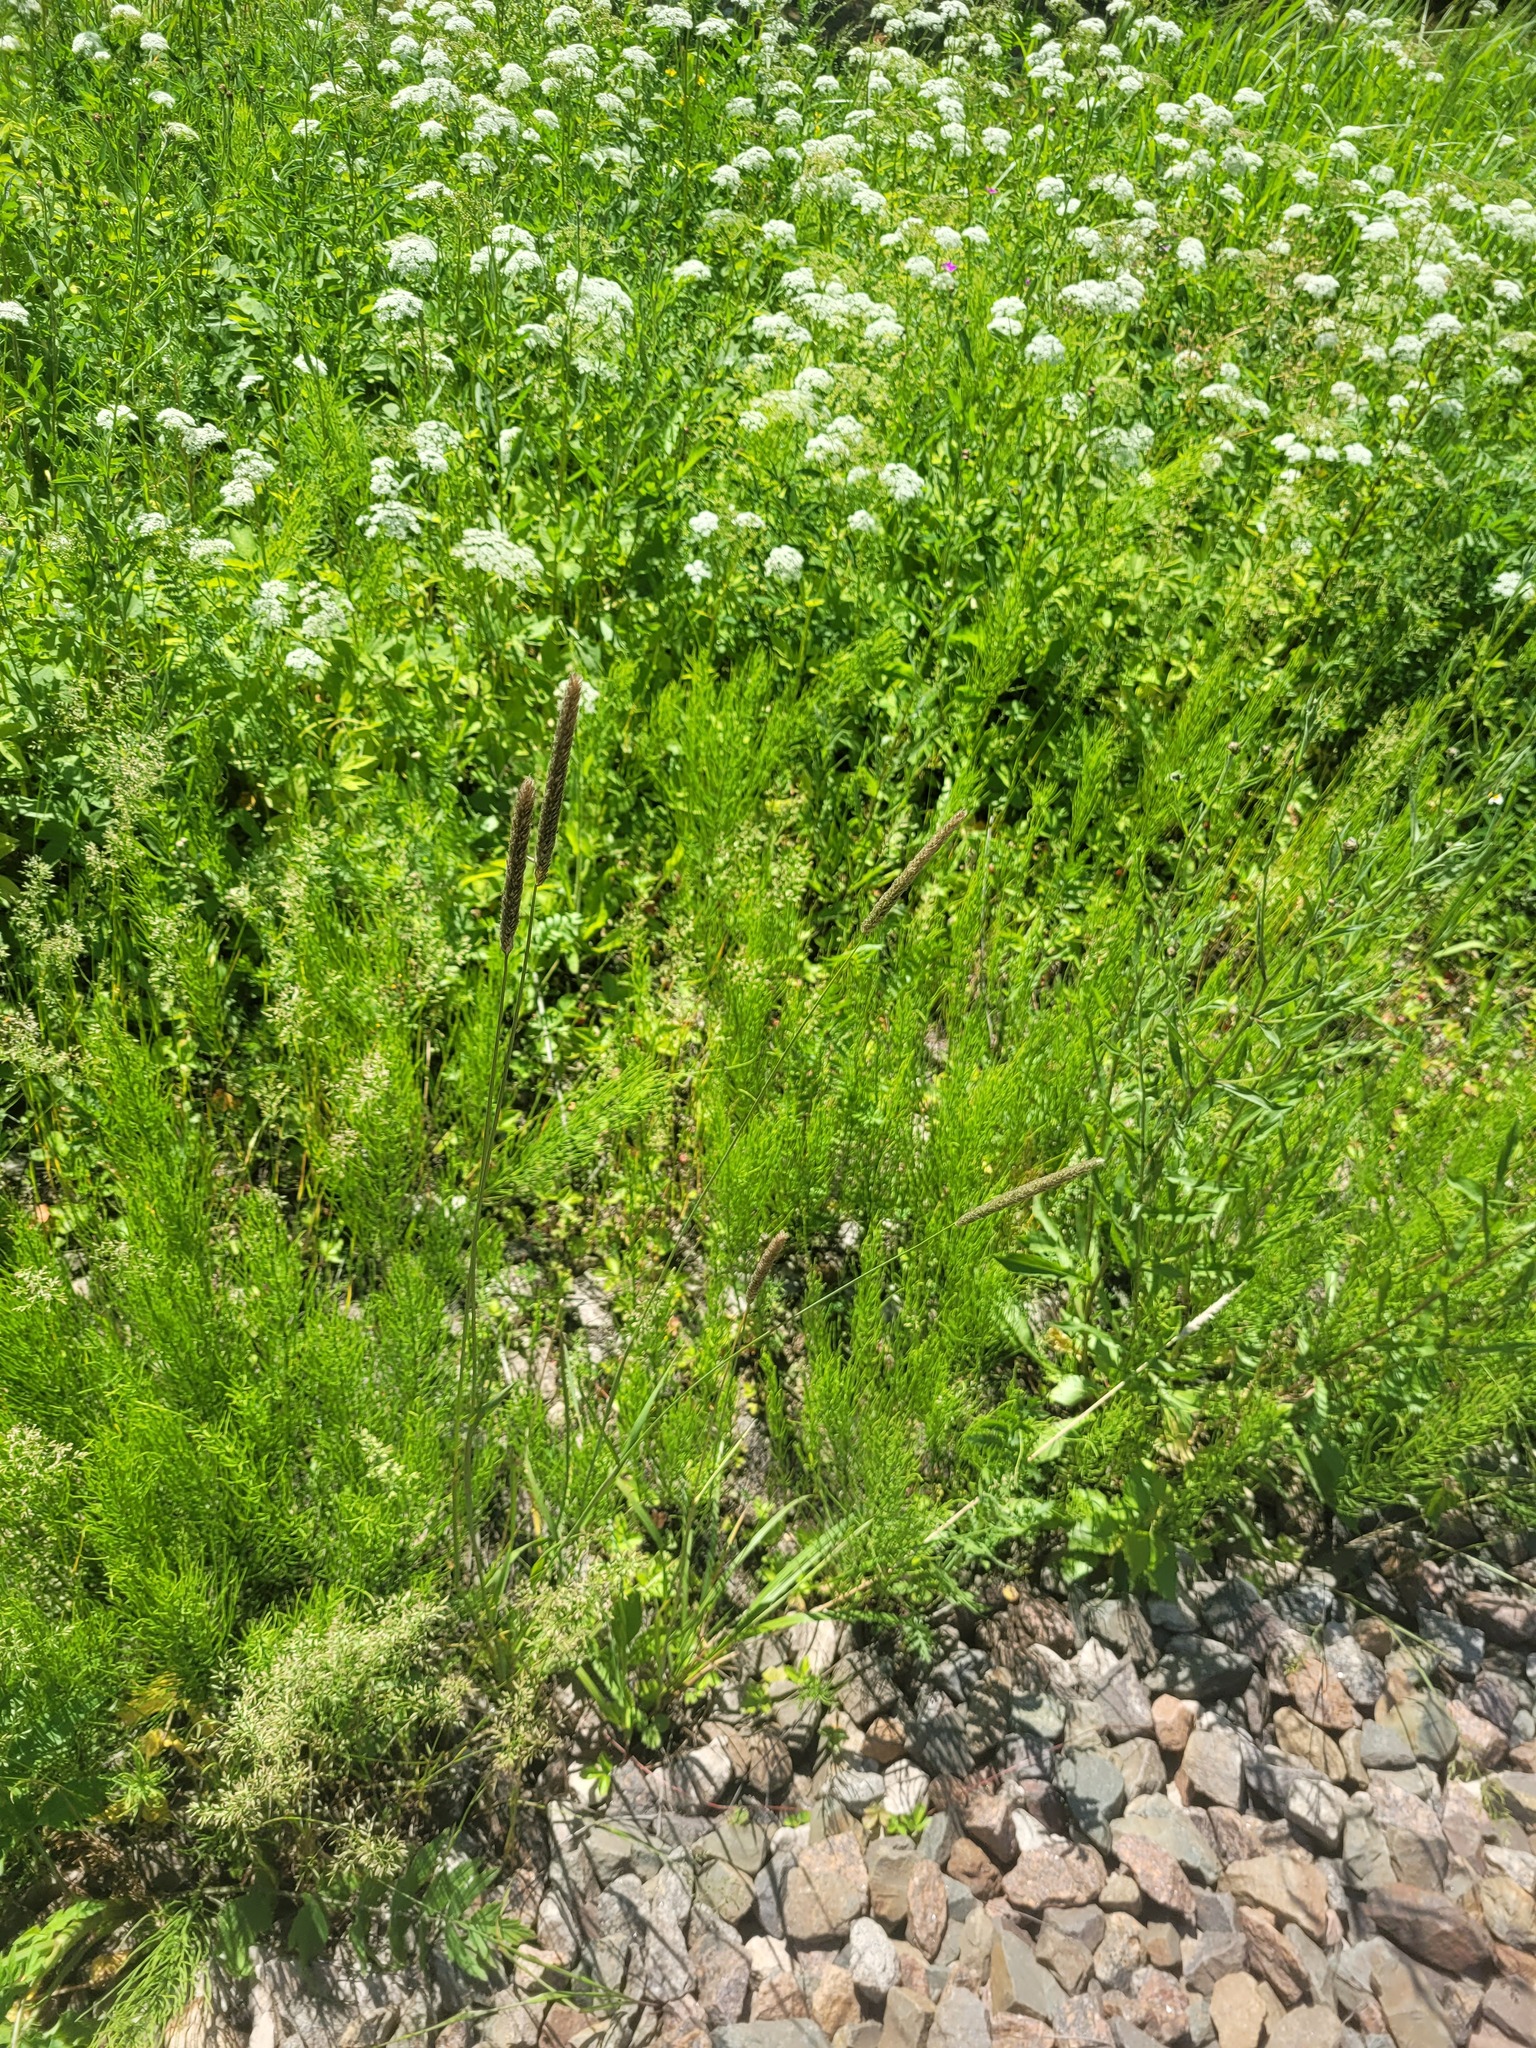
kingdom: Plantae
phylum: Tracheophyta
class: Liliopsida
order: Poales
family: Poaceae
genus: Alopecurus
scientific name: Alopecurus pratensis
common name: Meadow foxtail
